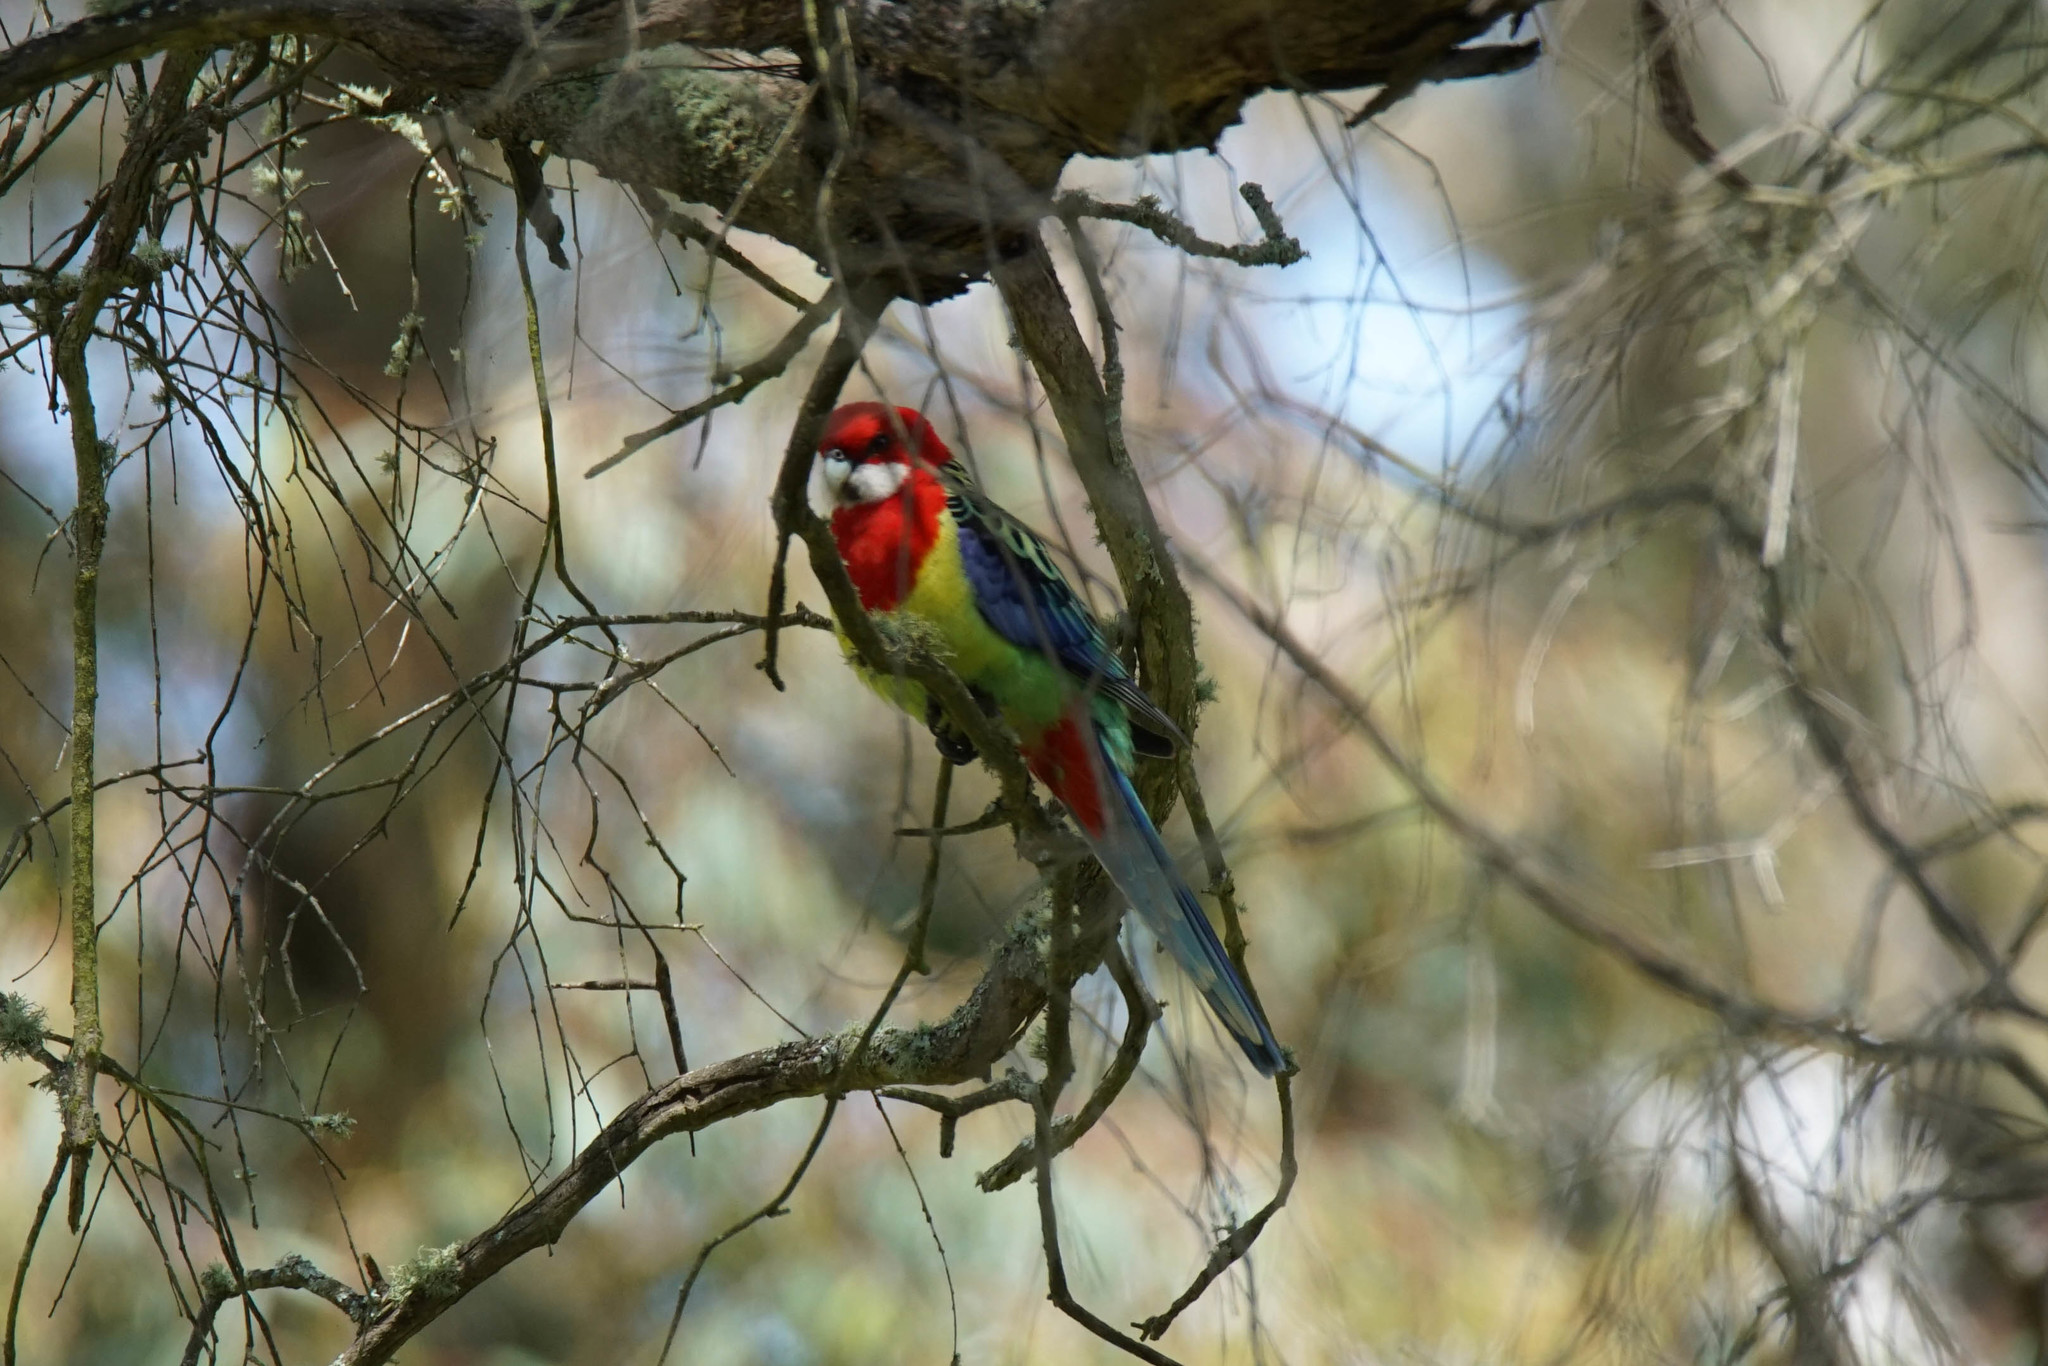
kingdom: Animalia
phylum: Chordata
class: Aves
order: Psittaciformes
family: Psittacidae
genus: Platycercus
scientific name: Platycercus eximius
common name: Eastern rosella
